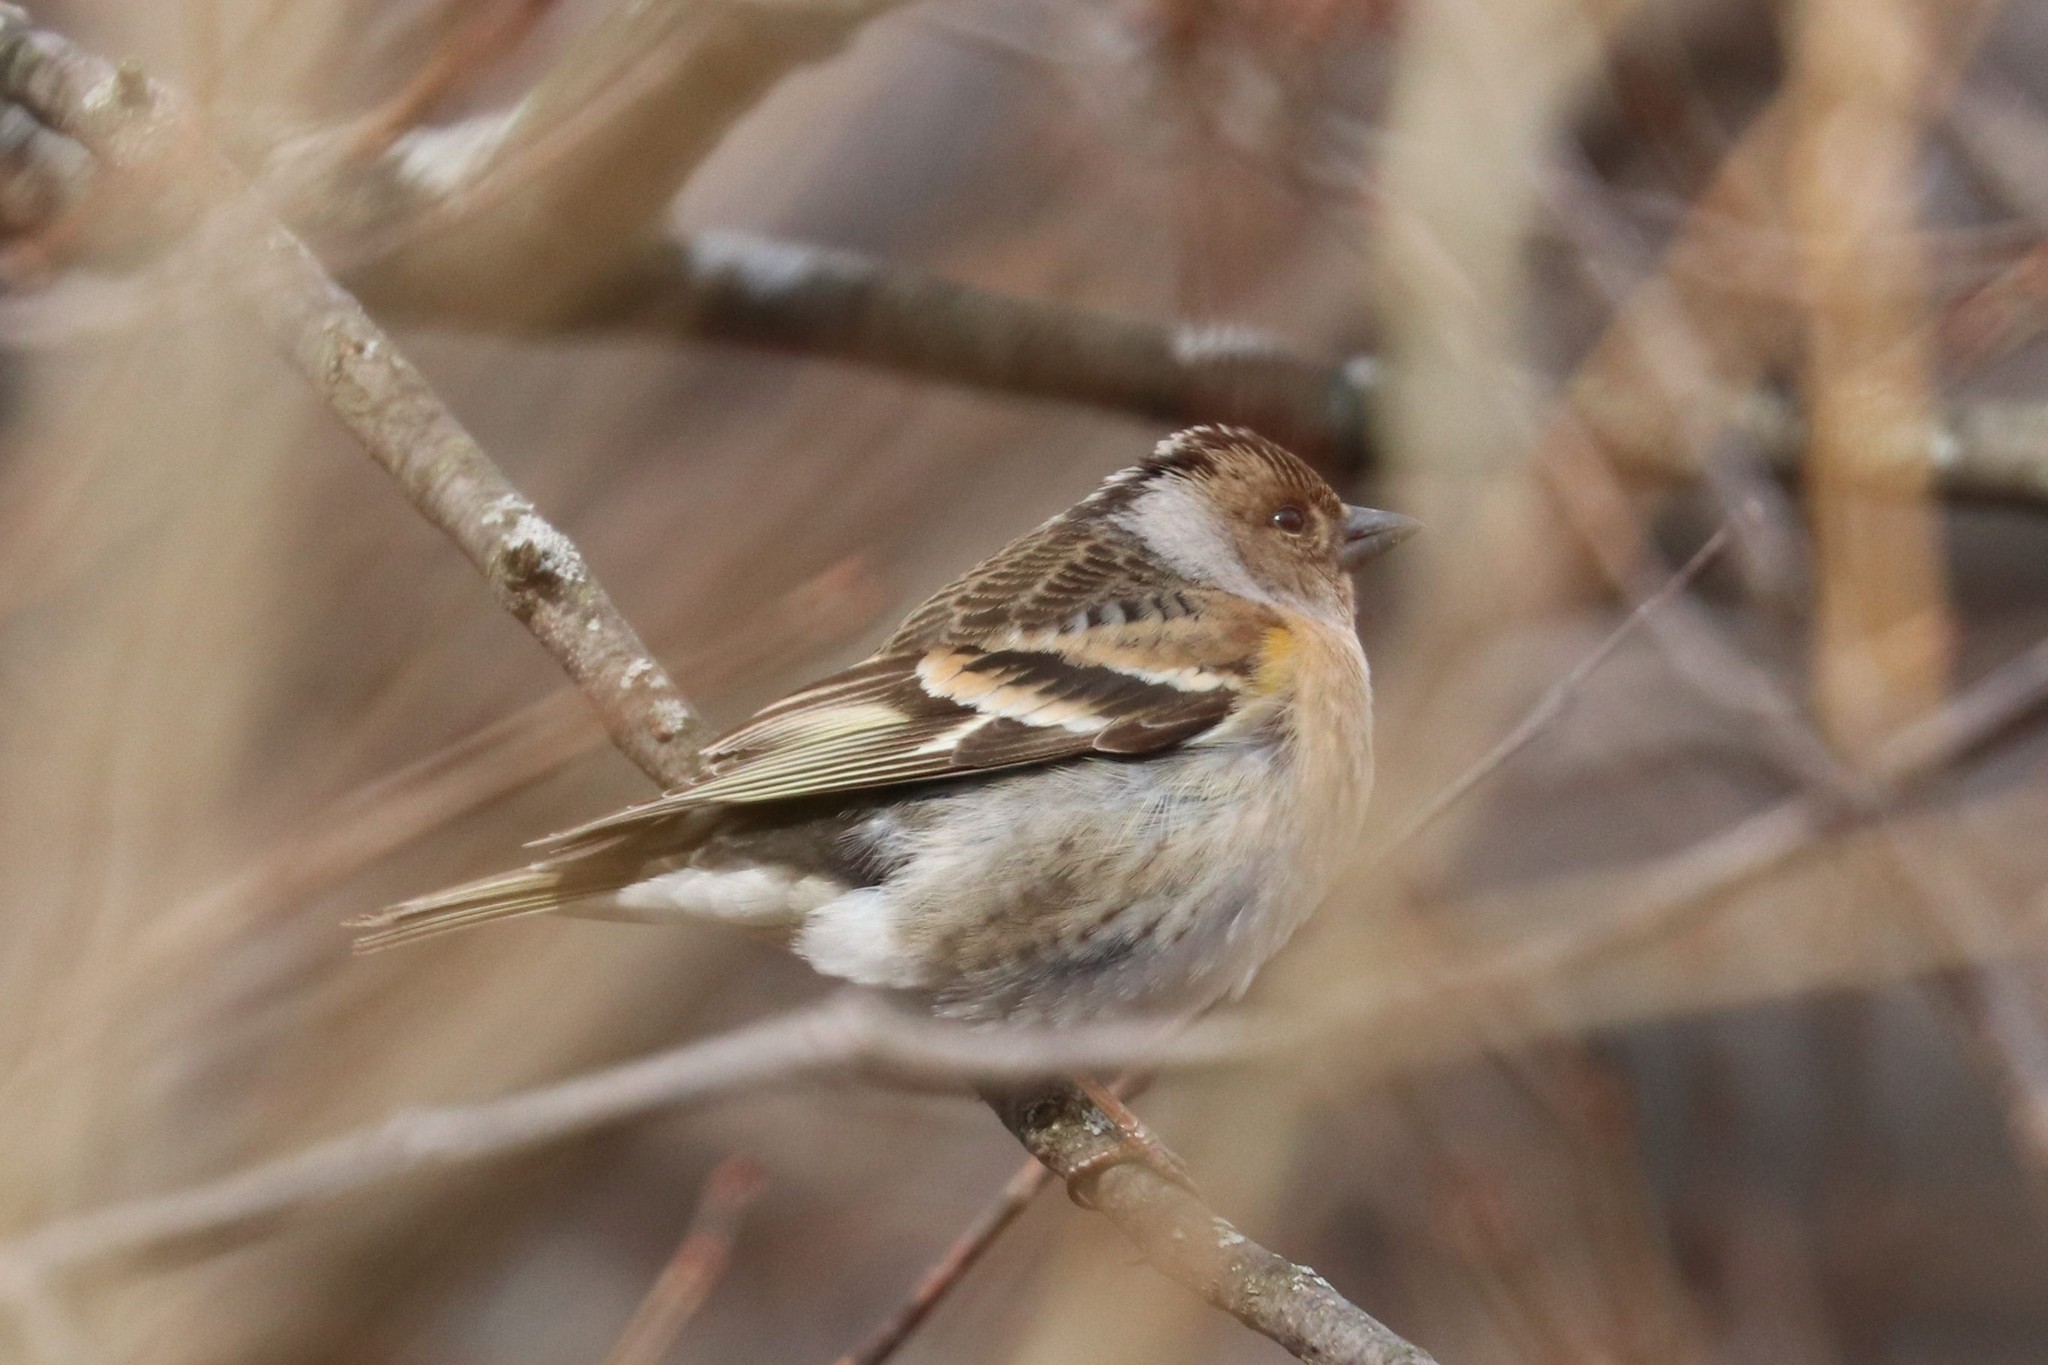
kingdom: Animalia
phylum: Chordata
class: Aves
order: Passeriformes
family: Fringillidae
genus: Fringilla
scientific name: Fringilla montifringilla
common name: Brambling
